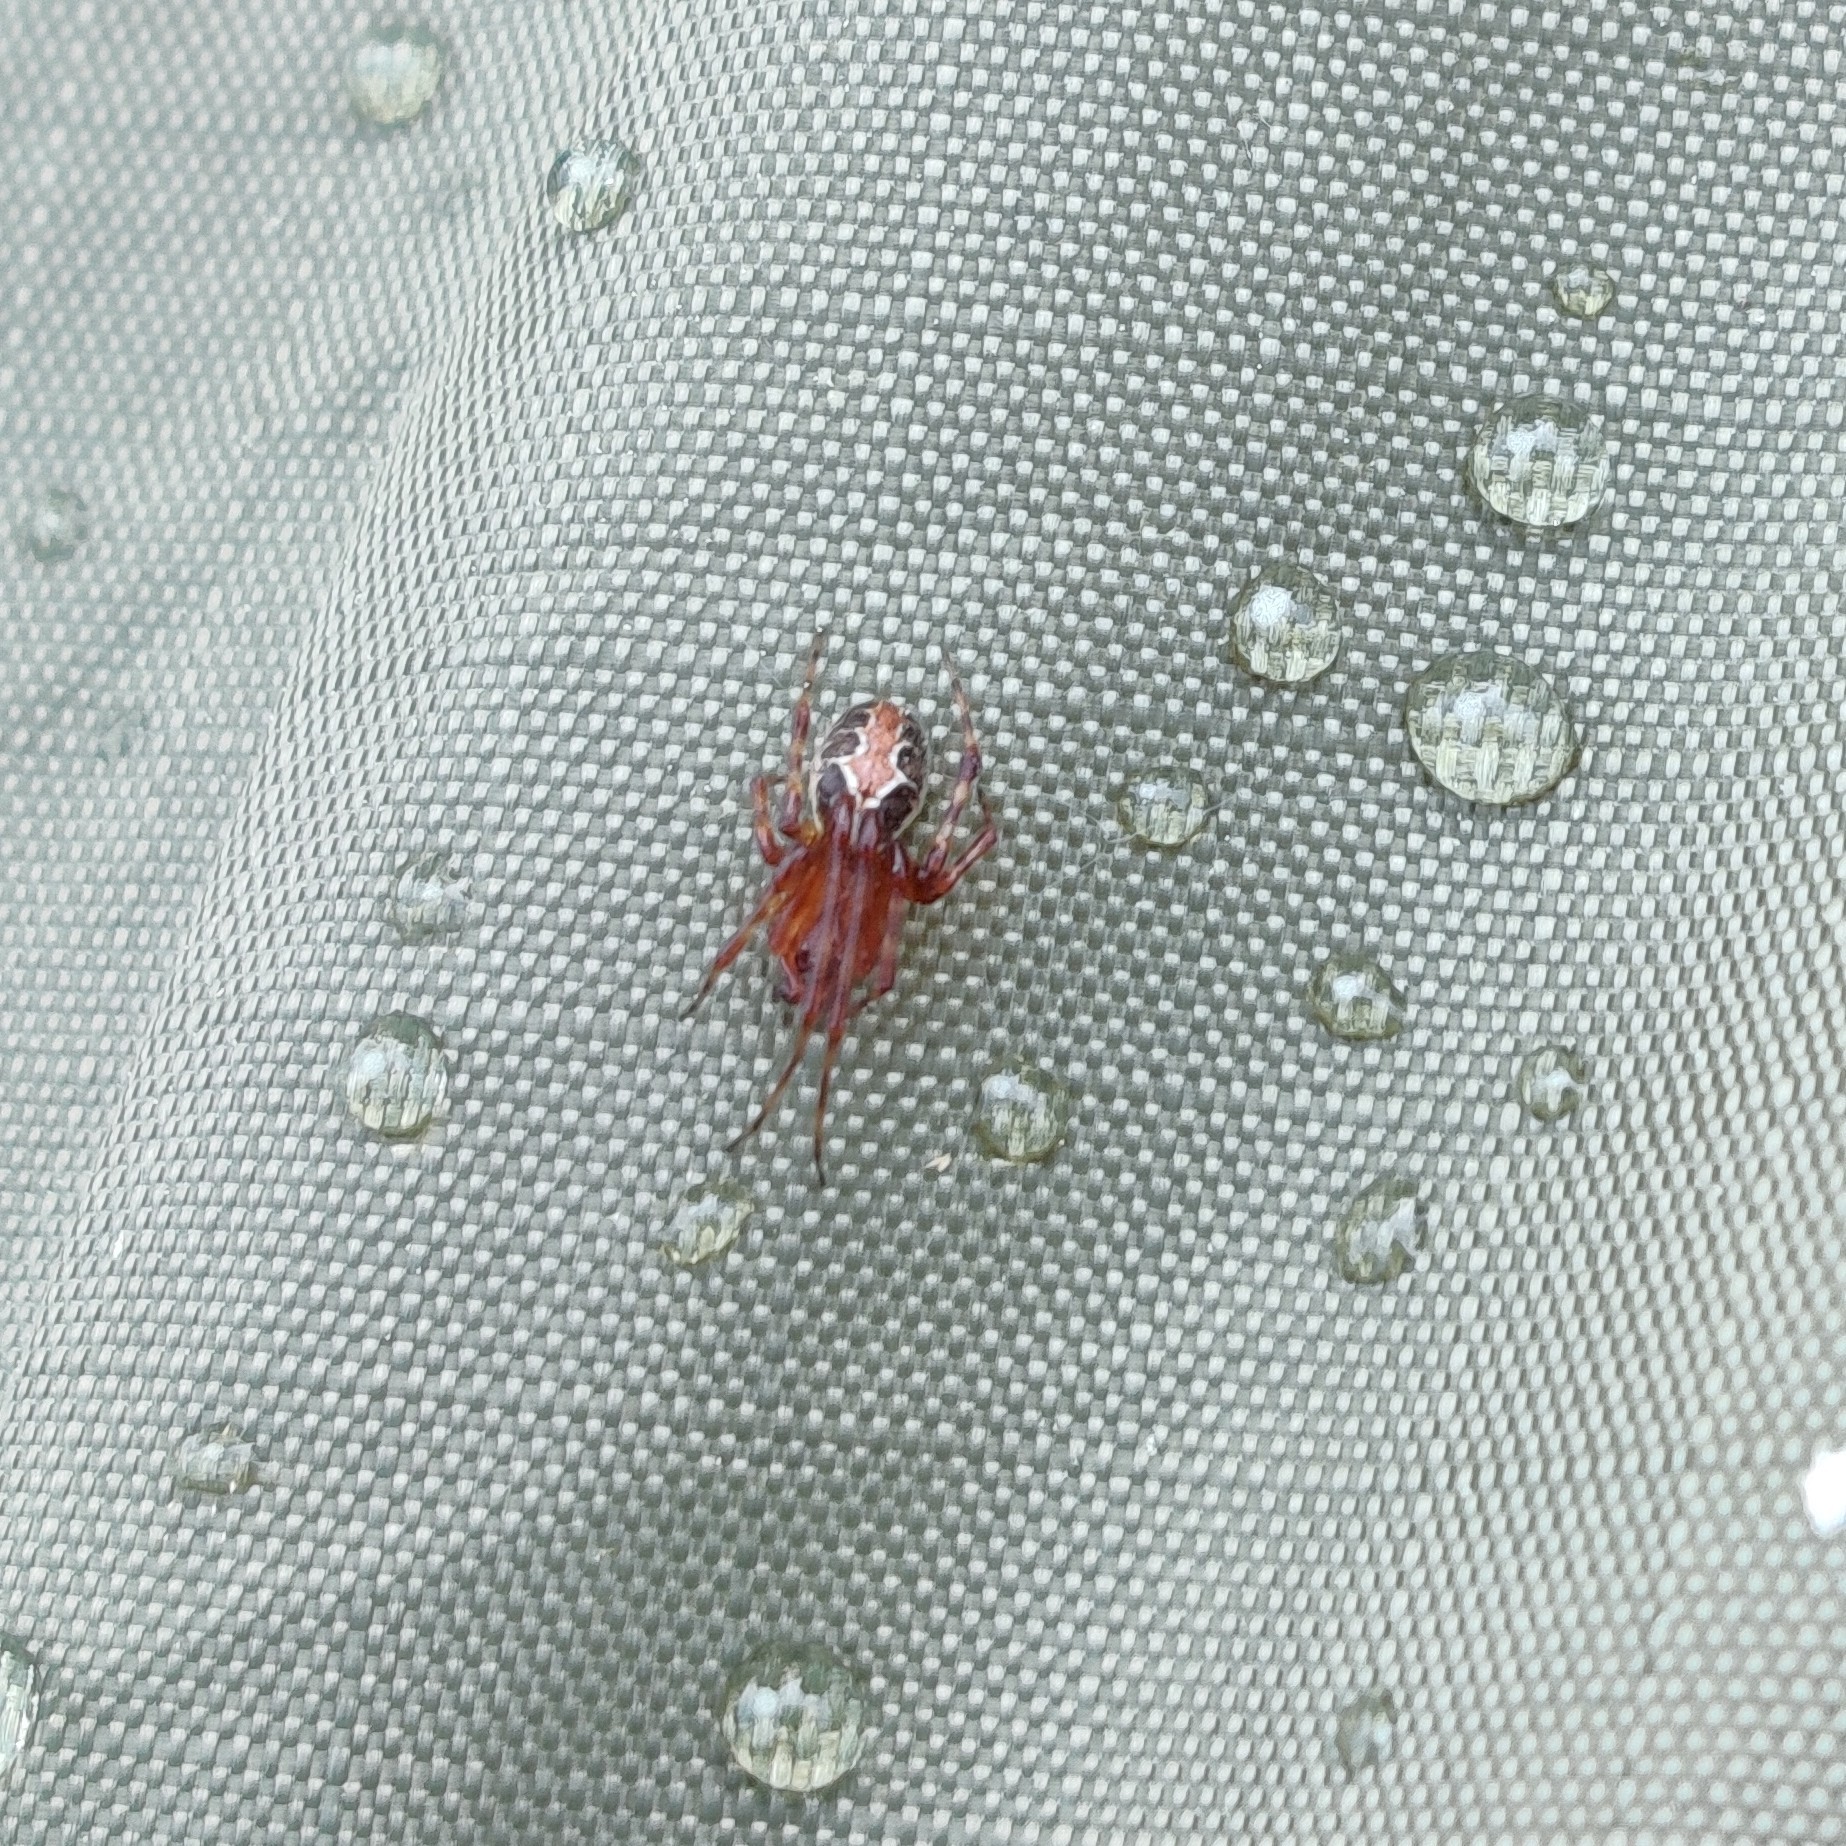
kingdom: Animalia
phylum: Arthropoda
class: Arachnida
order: Araneae
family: Theridiidae
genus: Theridion
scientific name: Theridion pictum
